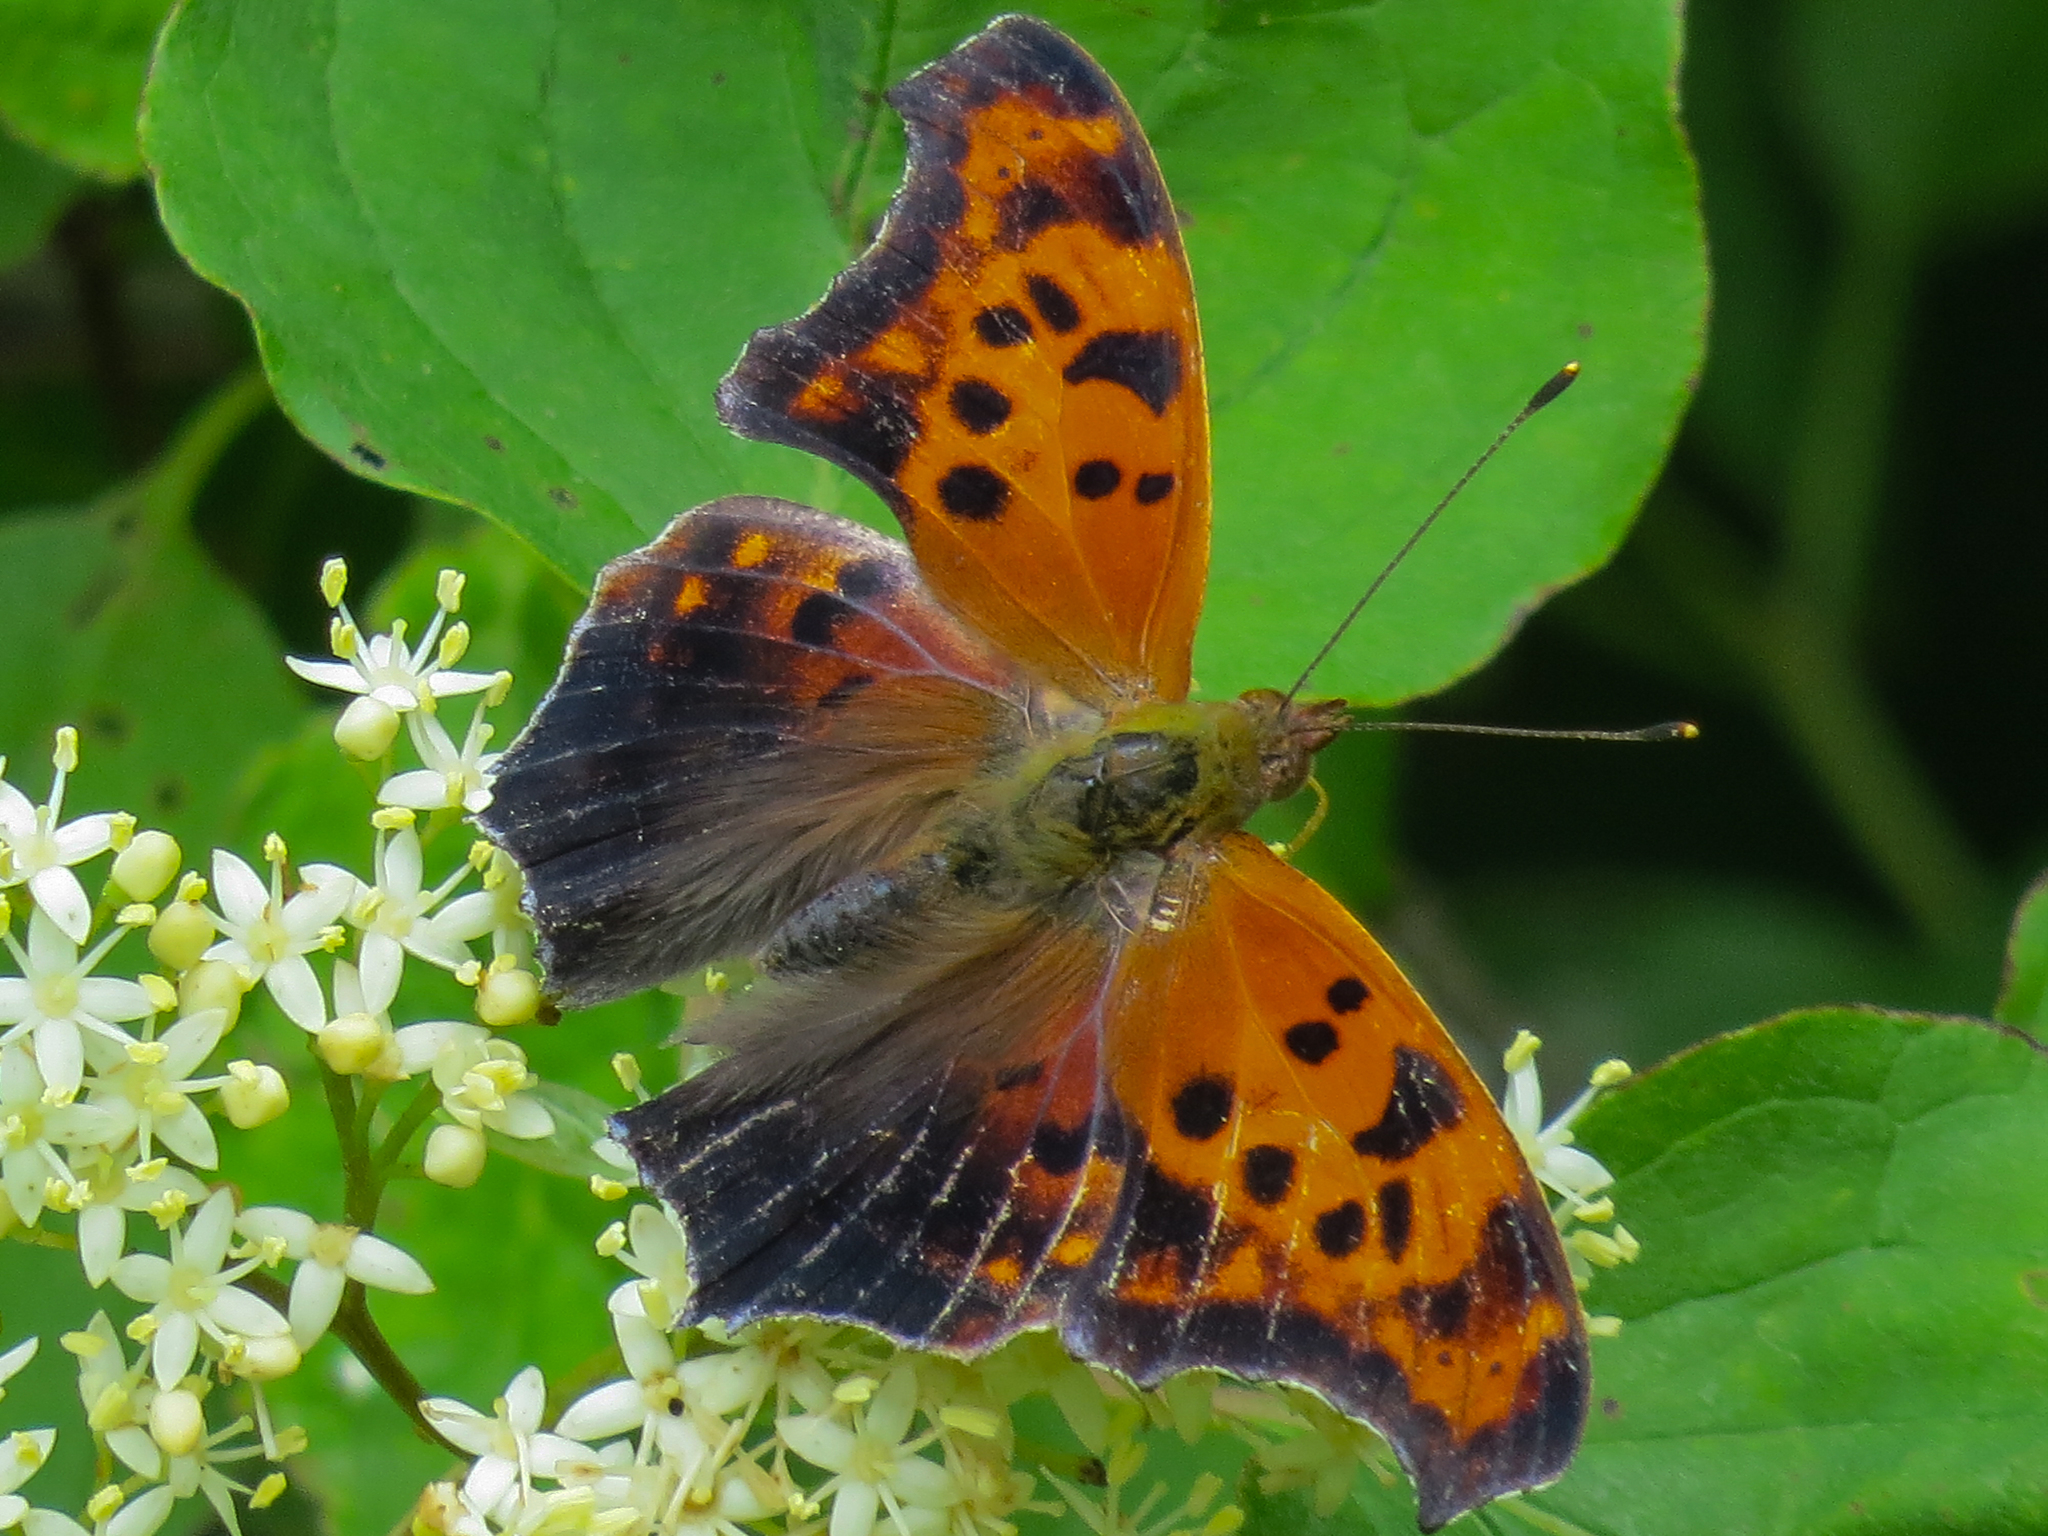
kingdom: Animalia
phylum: Arthropoda
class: Insecta
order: Lepidoptera
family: Nymphalidae
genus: Polygonia
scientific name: Polygonia interrogationis
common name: Question mark
